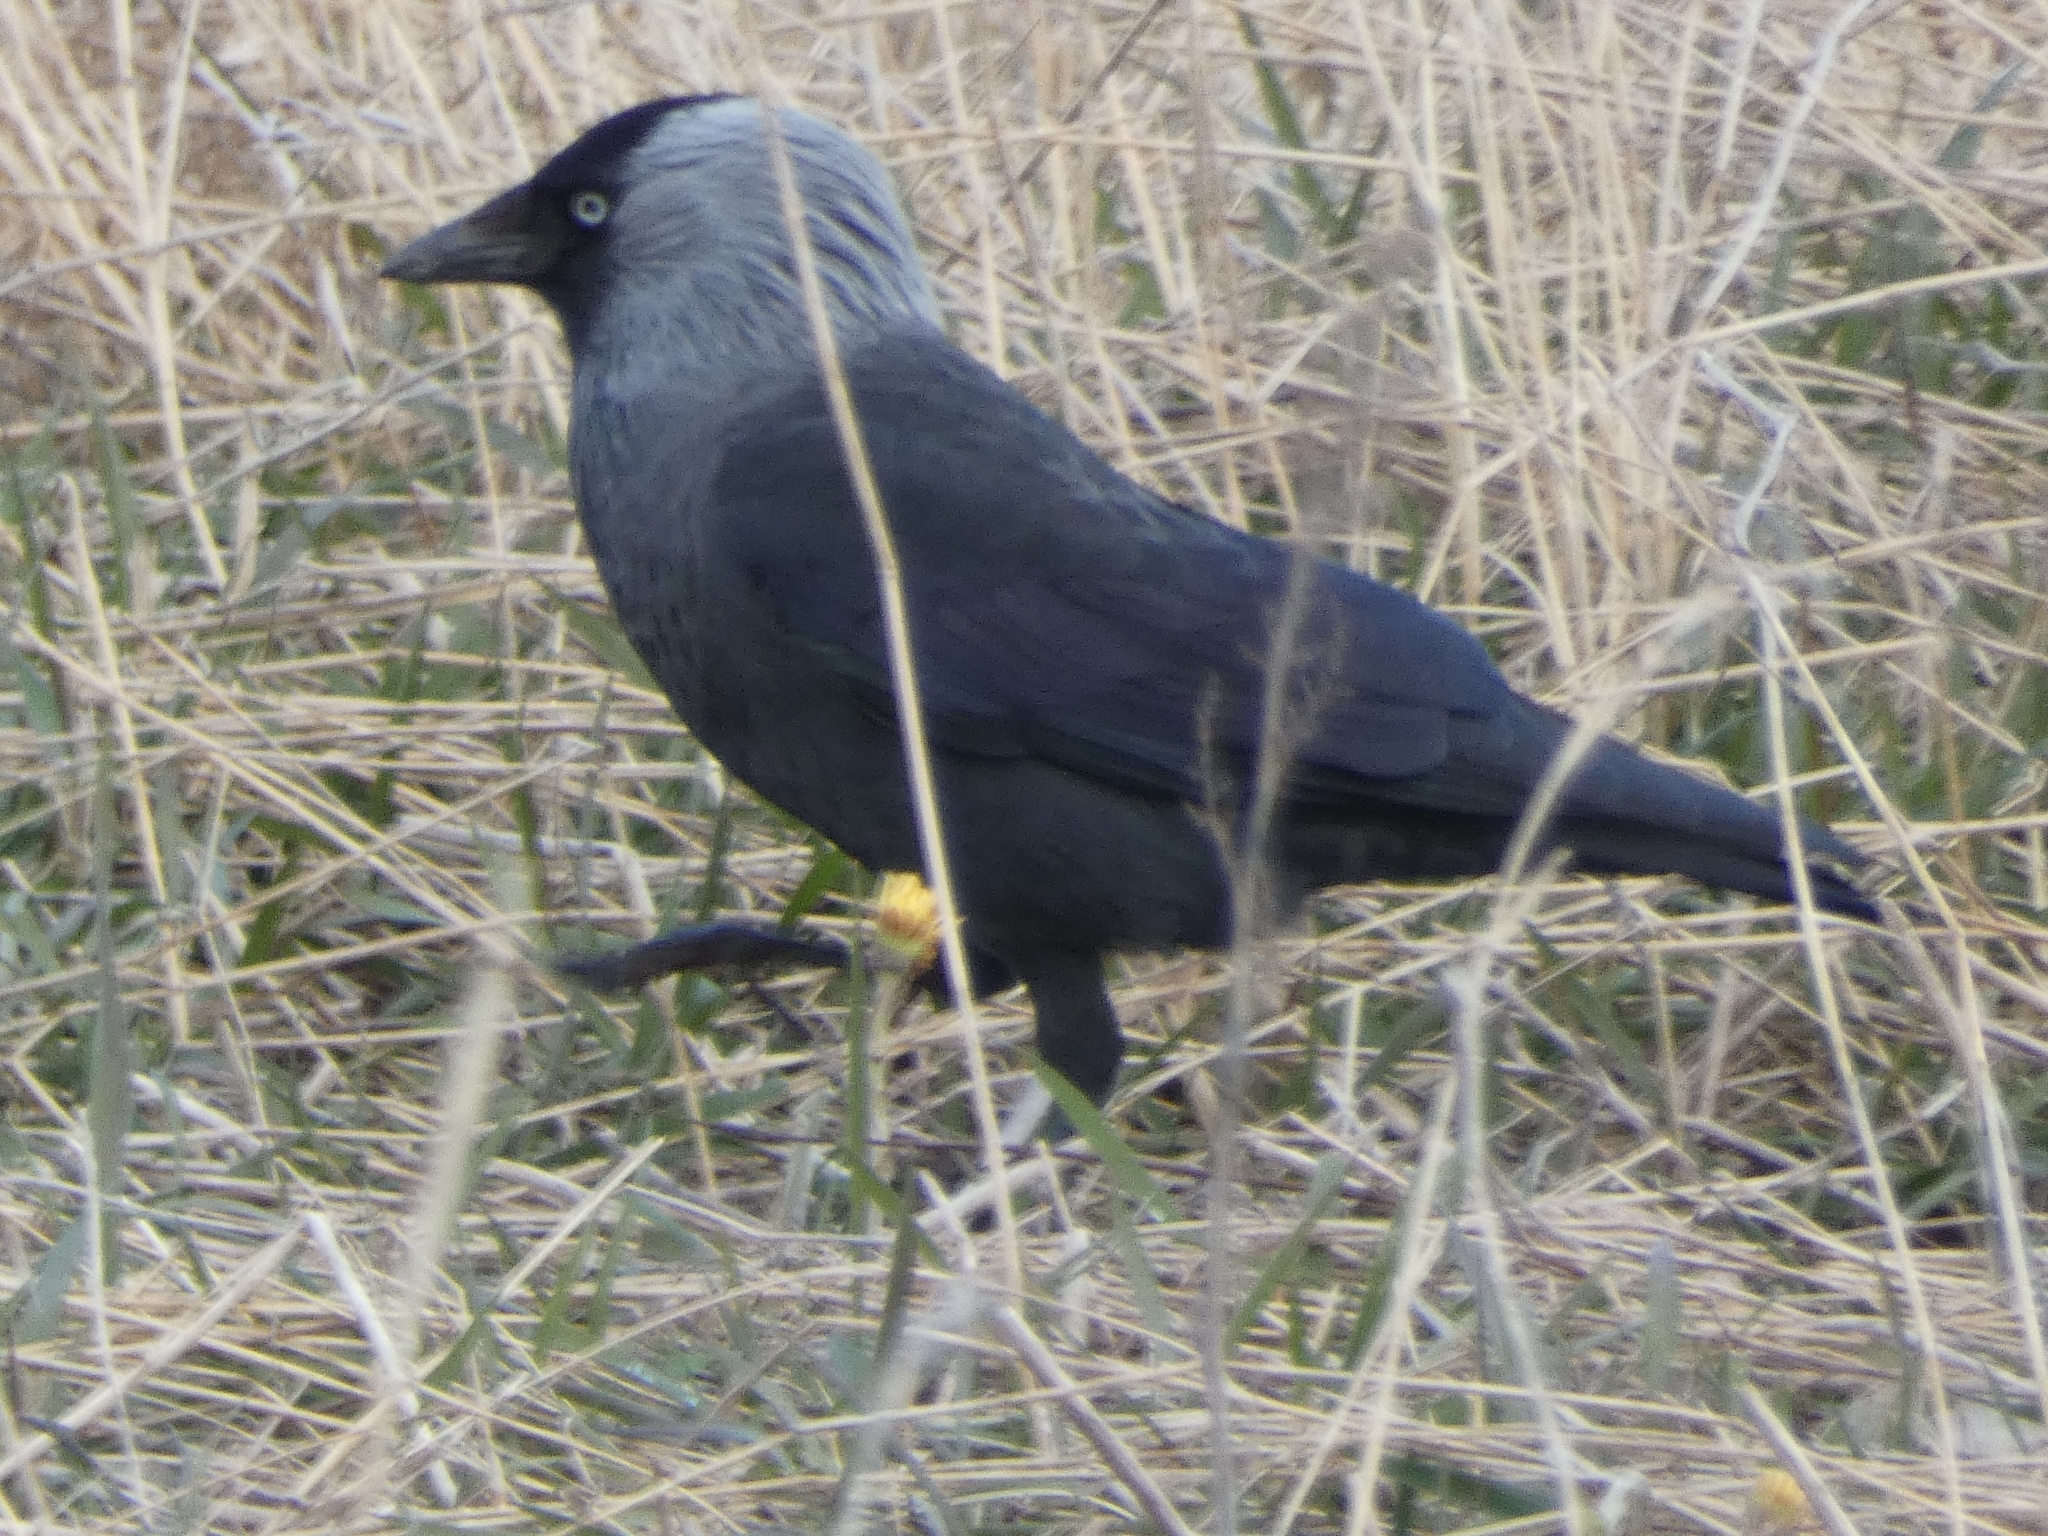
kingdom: Animalia
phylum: Chordata
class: Aves
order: Passeriformes
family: Corvidae
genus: Coloeus
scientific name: Coloeus monedula
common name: Western jackdaw
